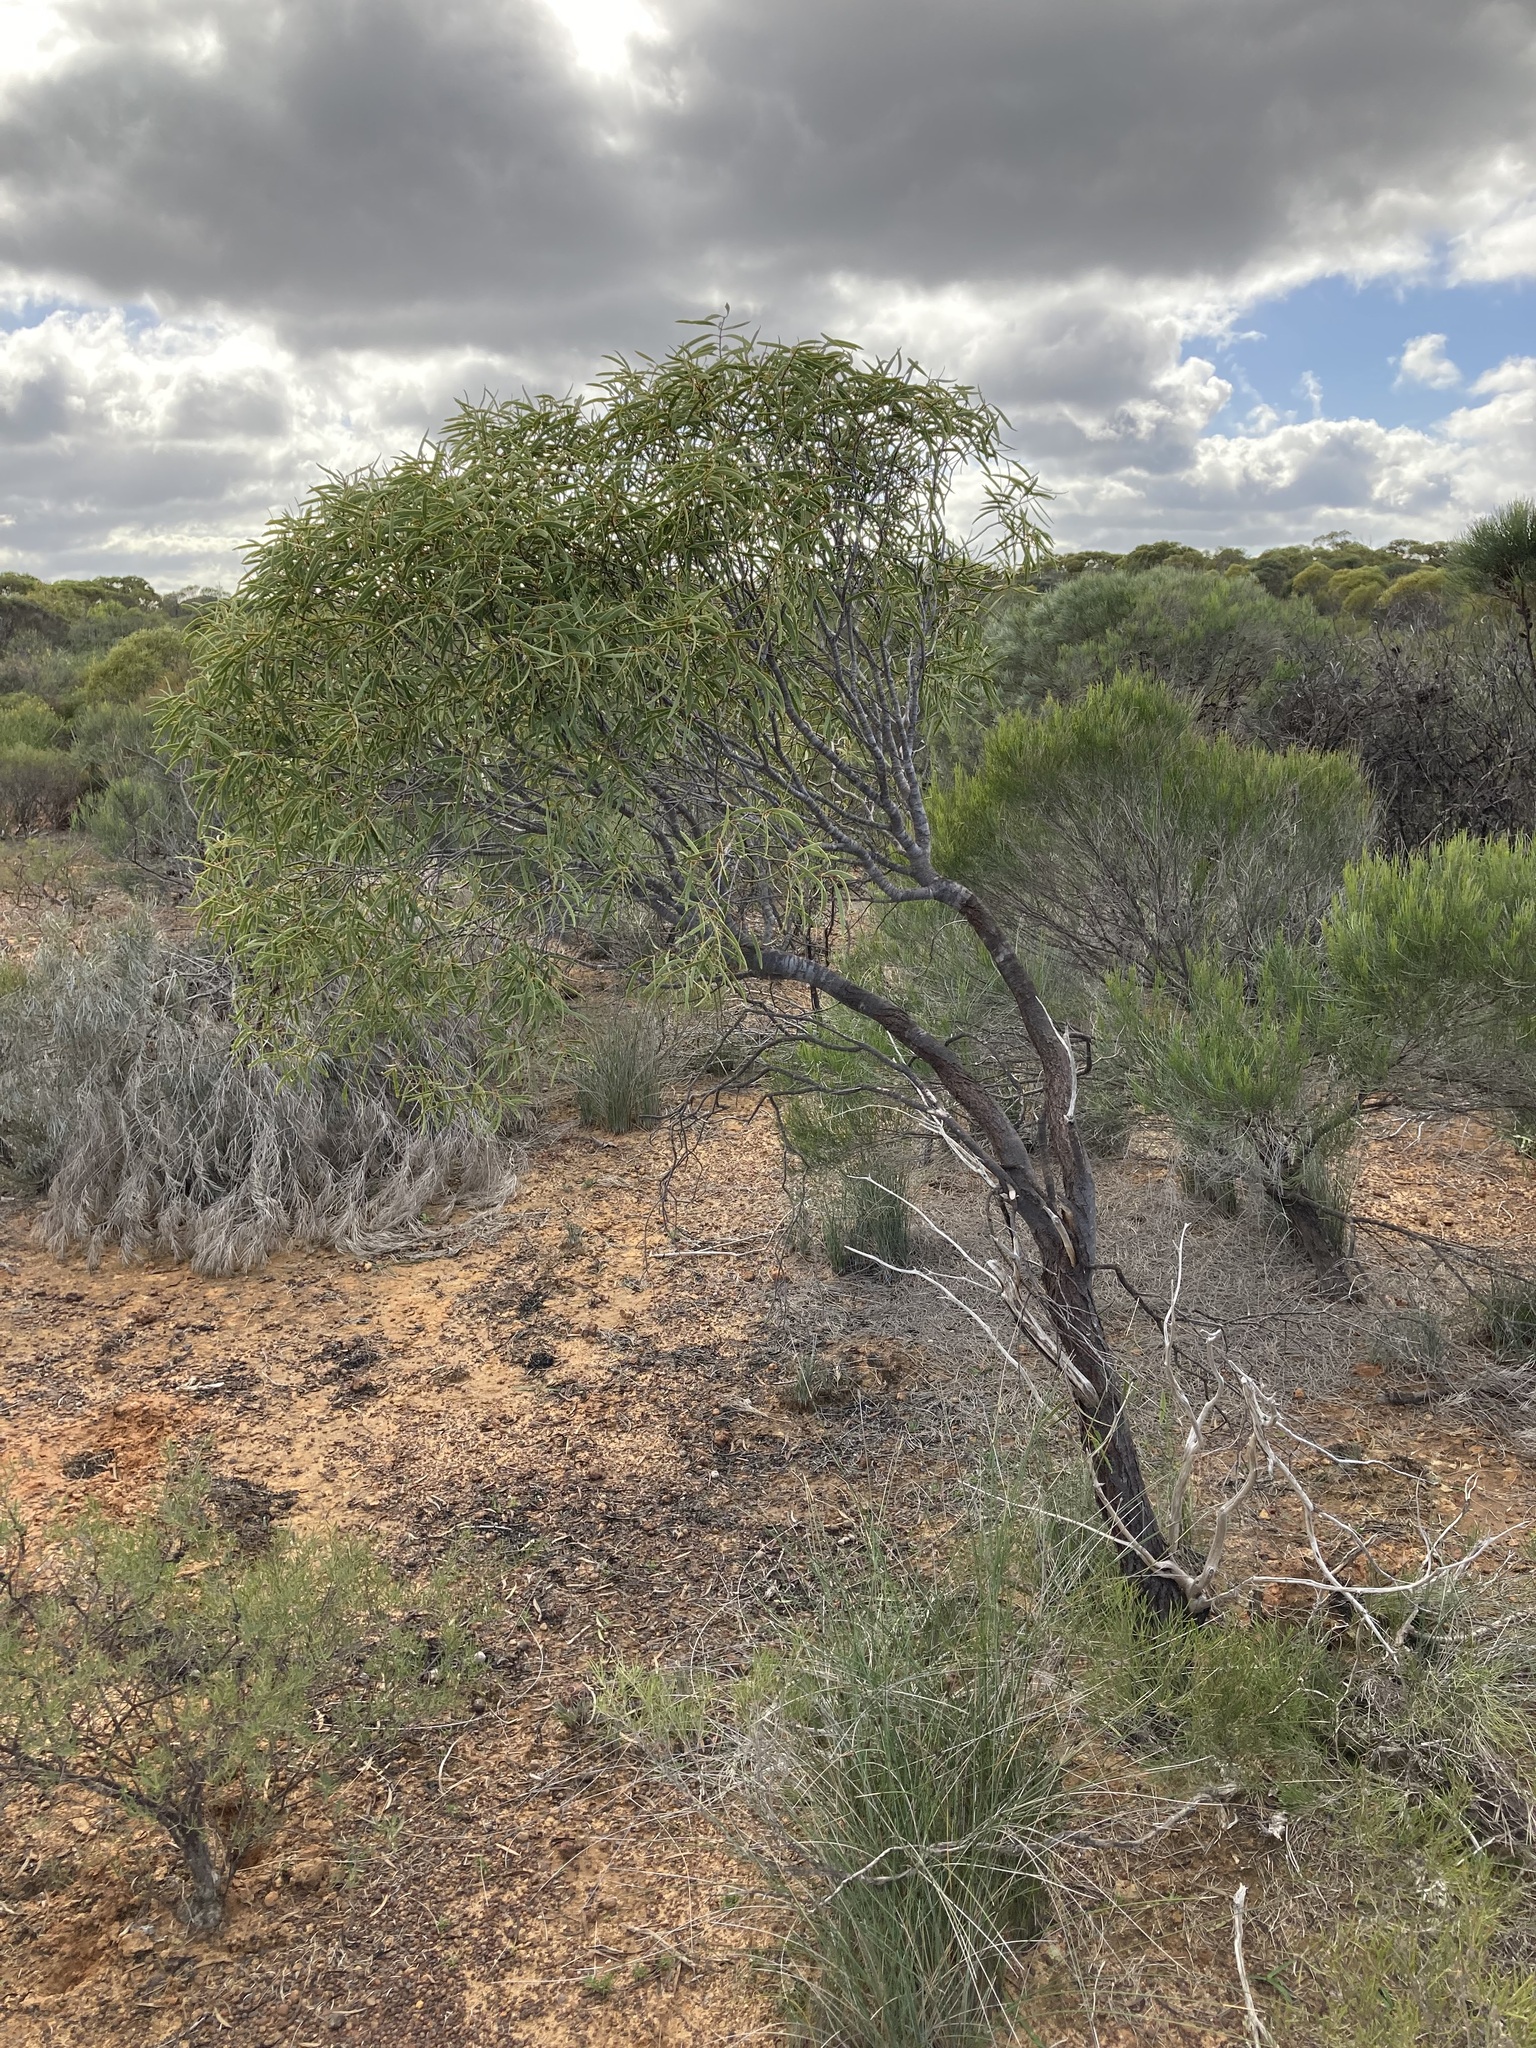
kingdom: Plantae
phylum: Tracheophyta
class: Magnoliopsida
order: Santalales
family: Santalaceae
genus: Santalum
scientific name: Santalum acuminatum
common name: Sweet quandong
